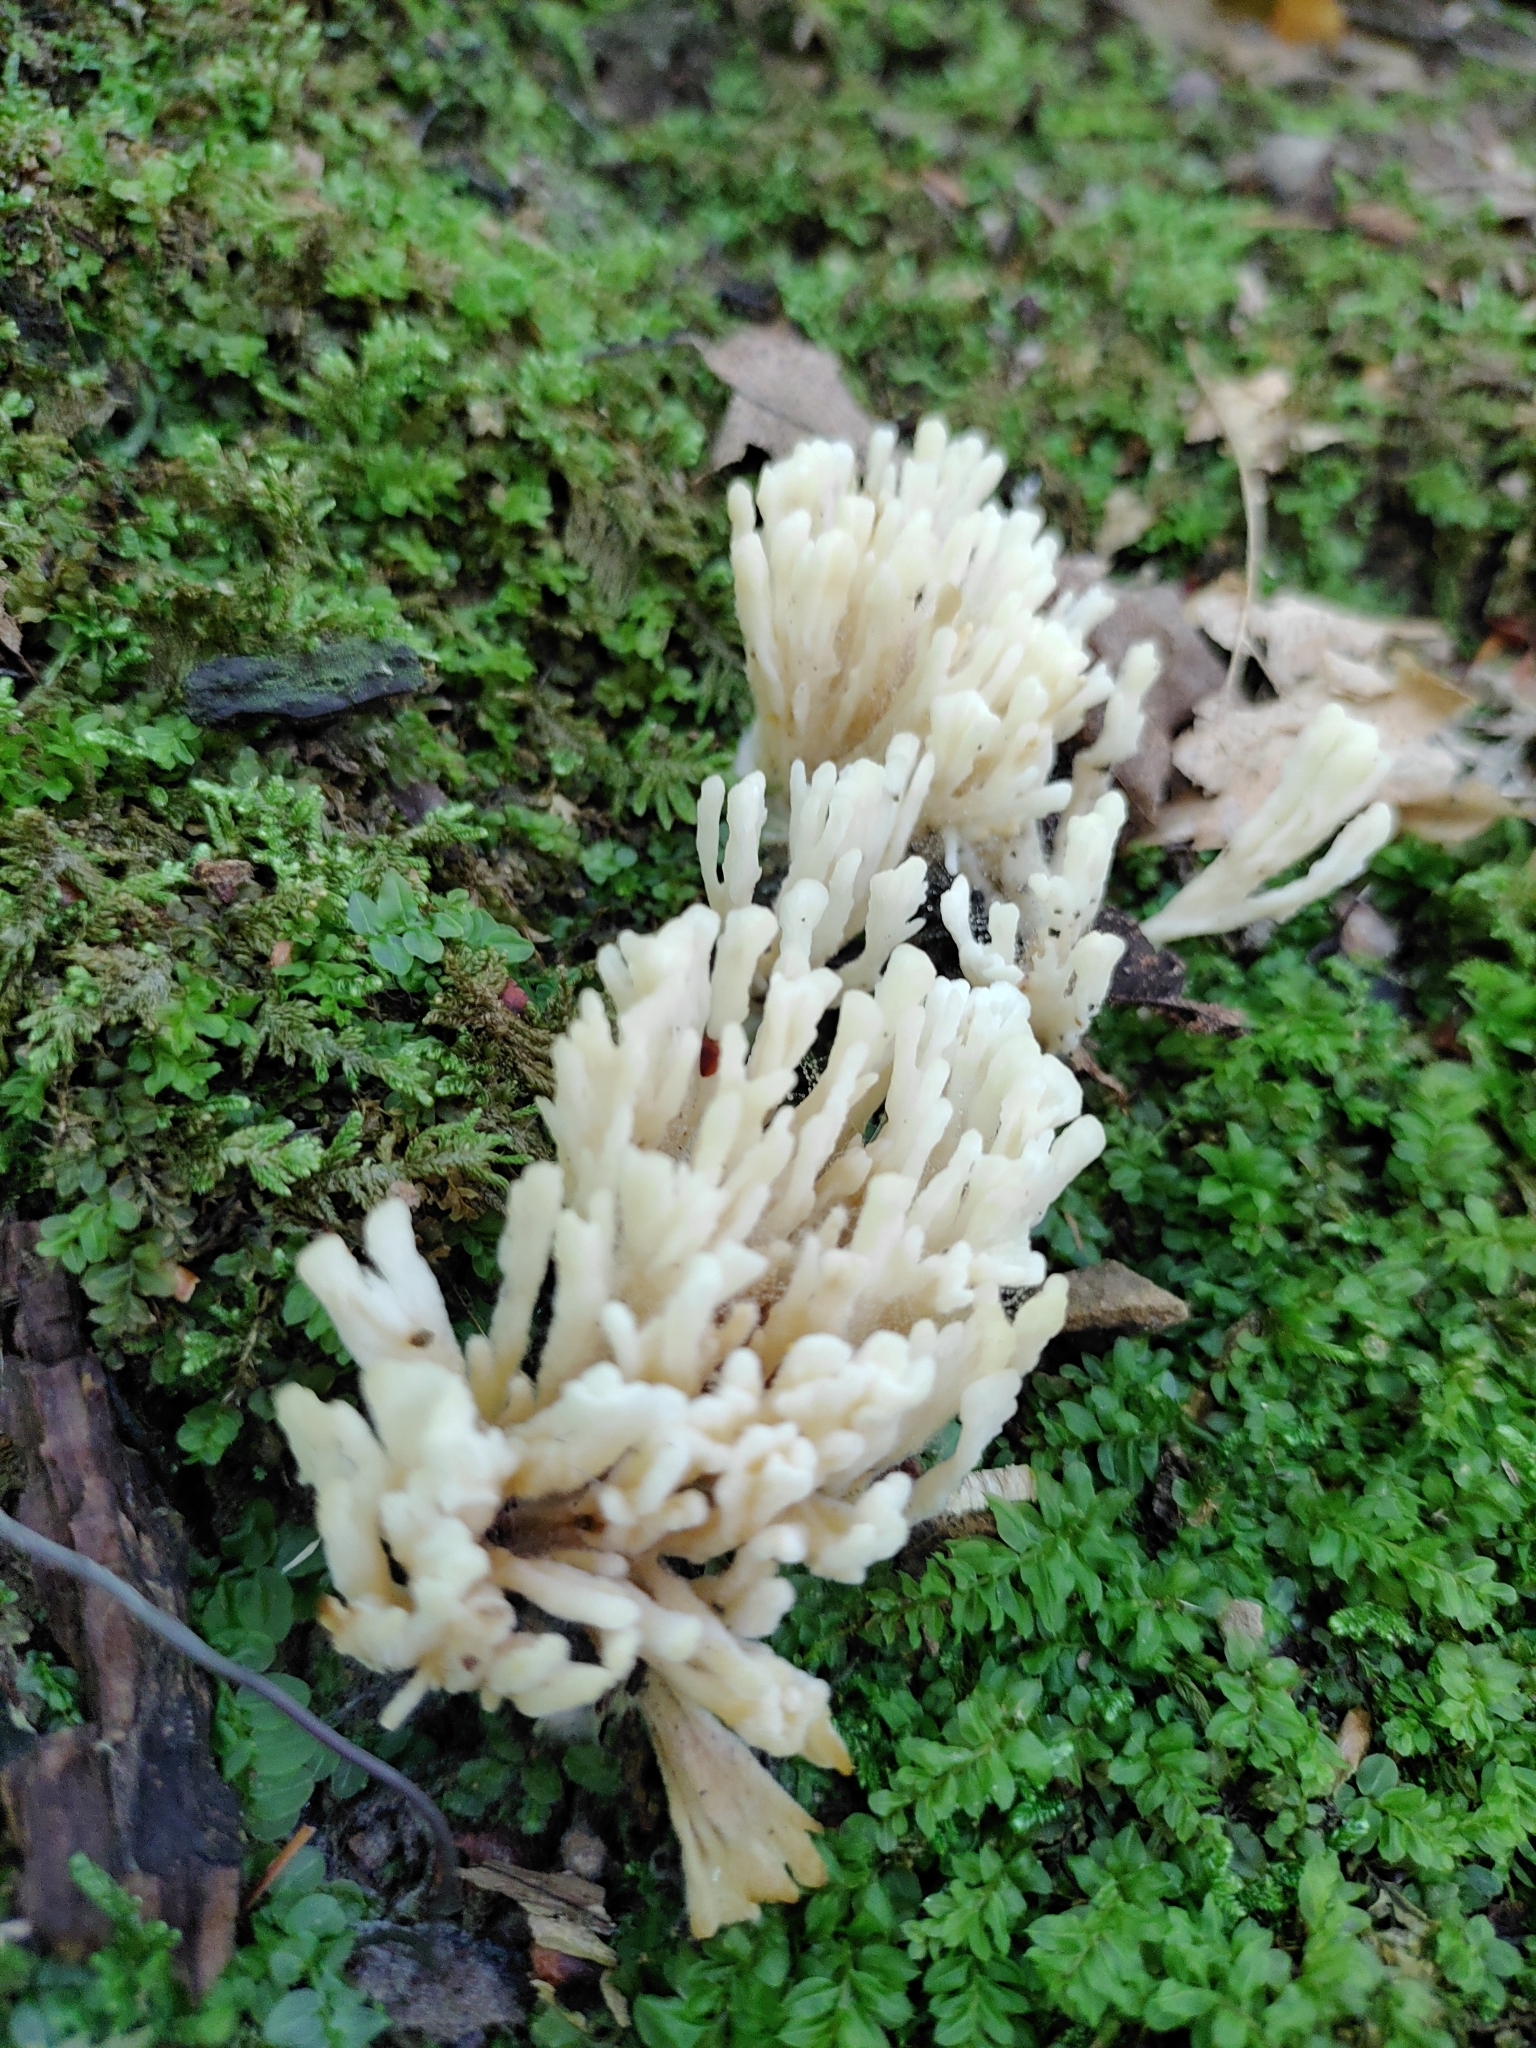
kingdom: Fungi
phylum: Basidiomycota
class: Agaricomycetes
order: Sebacinales
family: Sebacinaceae
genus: Sebacina
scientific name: Sebacina schweinitzii
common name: Jellied false coral fungus
